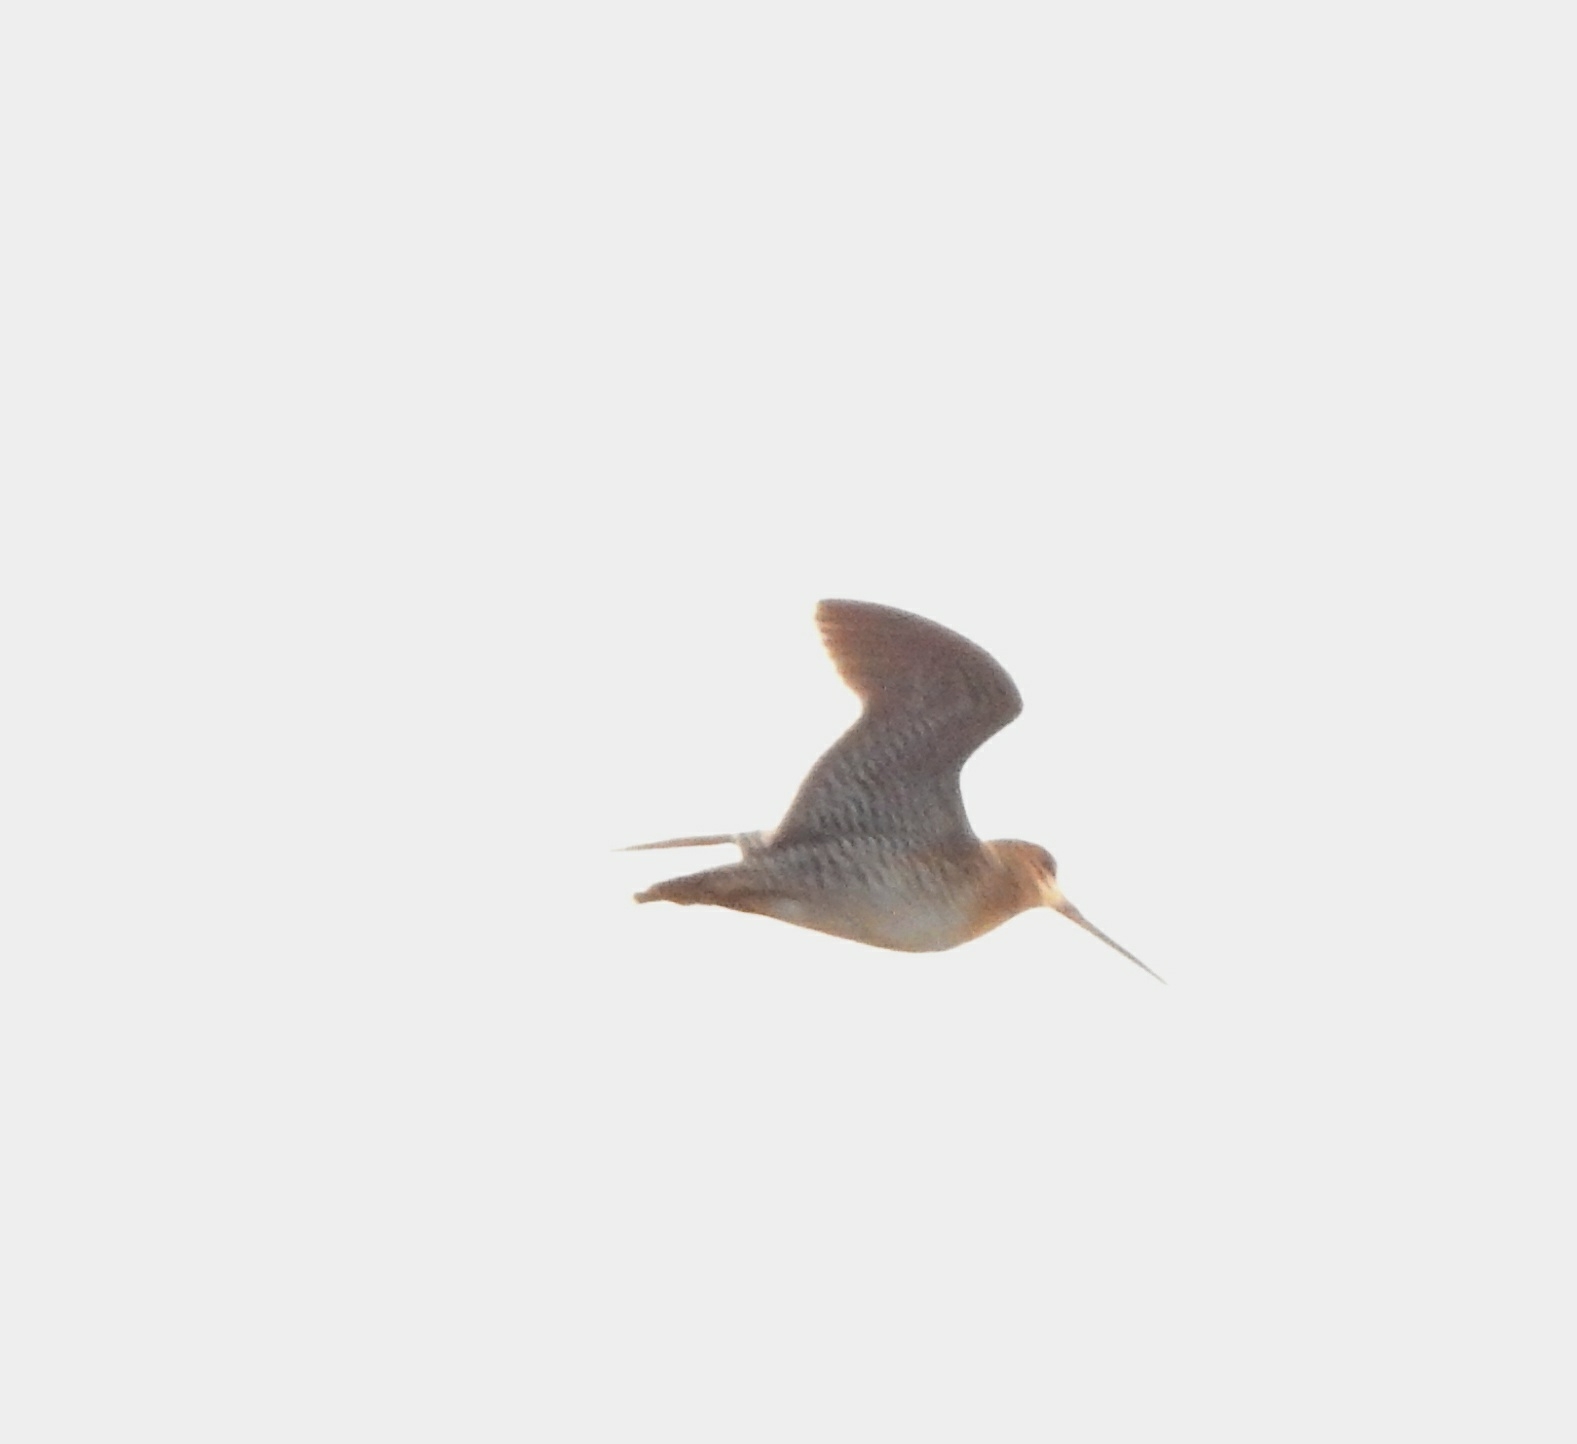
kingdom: Animalia
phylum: Chordata
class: Aves
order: Charadriiformes
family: Scolopacidae
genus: Gallinago
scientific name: Gallinago stenura
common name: Pin-tailed snipe
